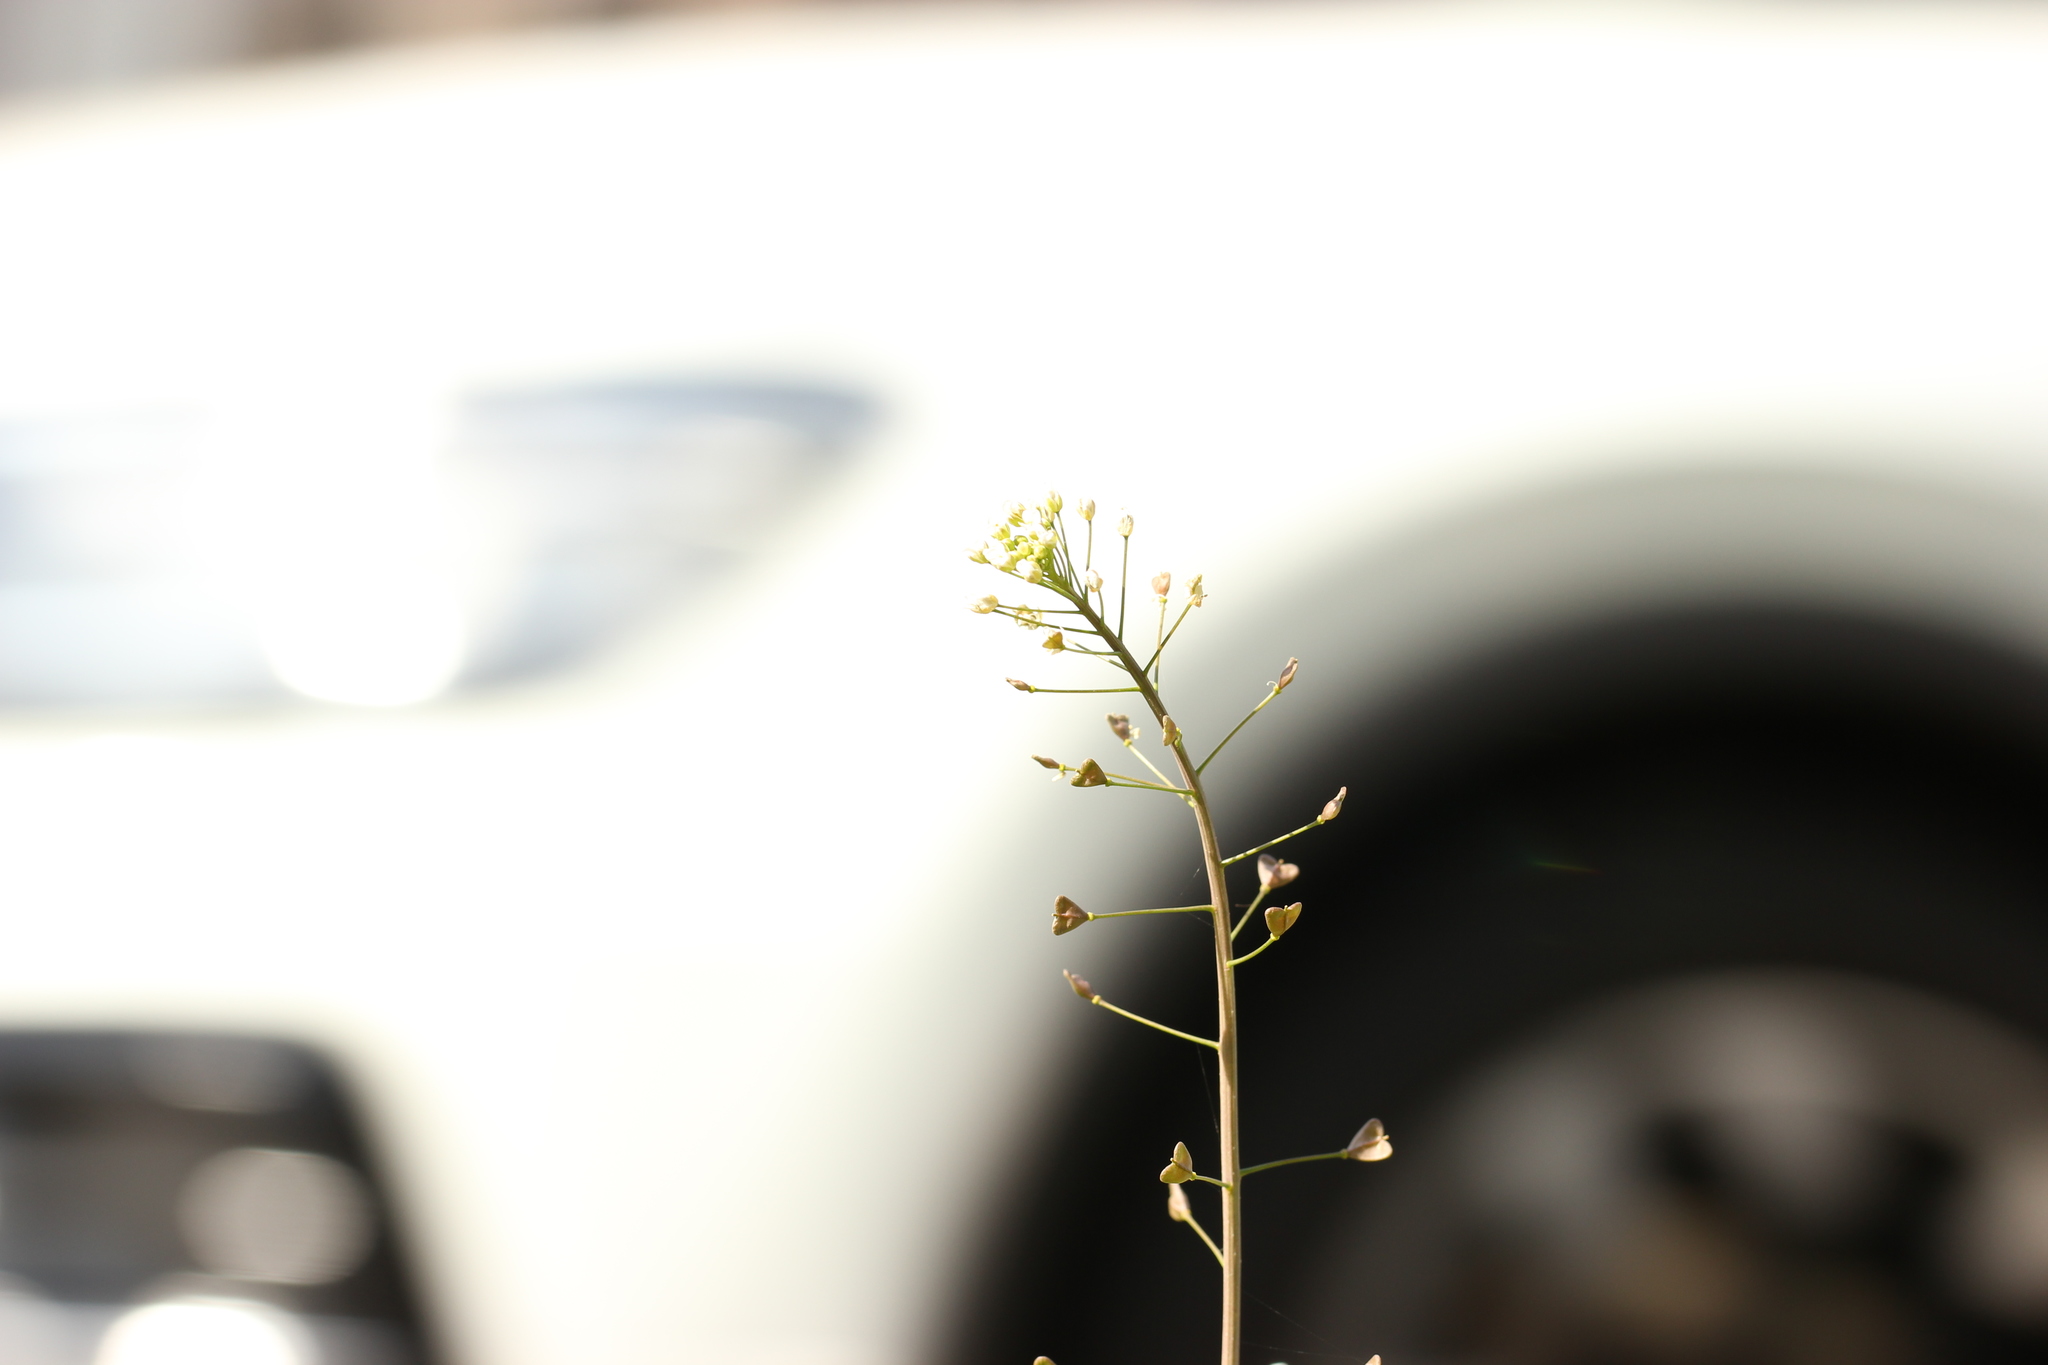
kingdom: Plantae
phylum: Tracheophyta
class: Magnoliopsida
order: Brassicales
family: Brassicaceae
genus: Capsella
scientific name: Capsella bursa-pastoris
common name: Shepherd's purse
